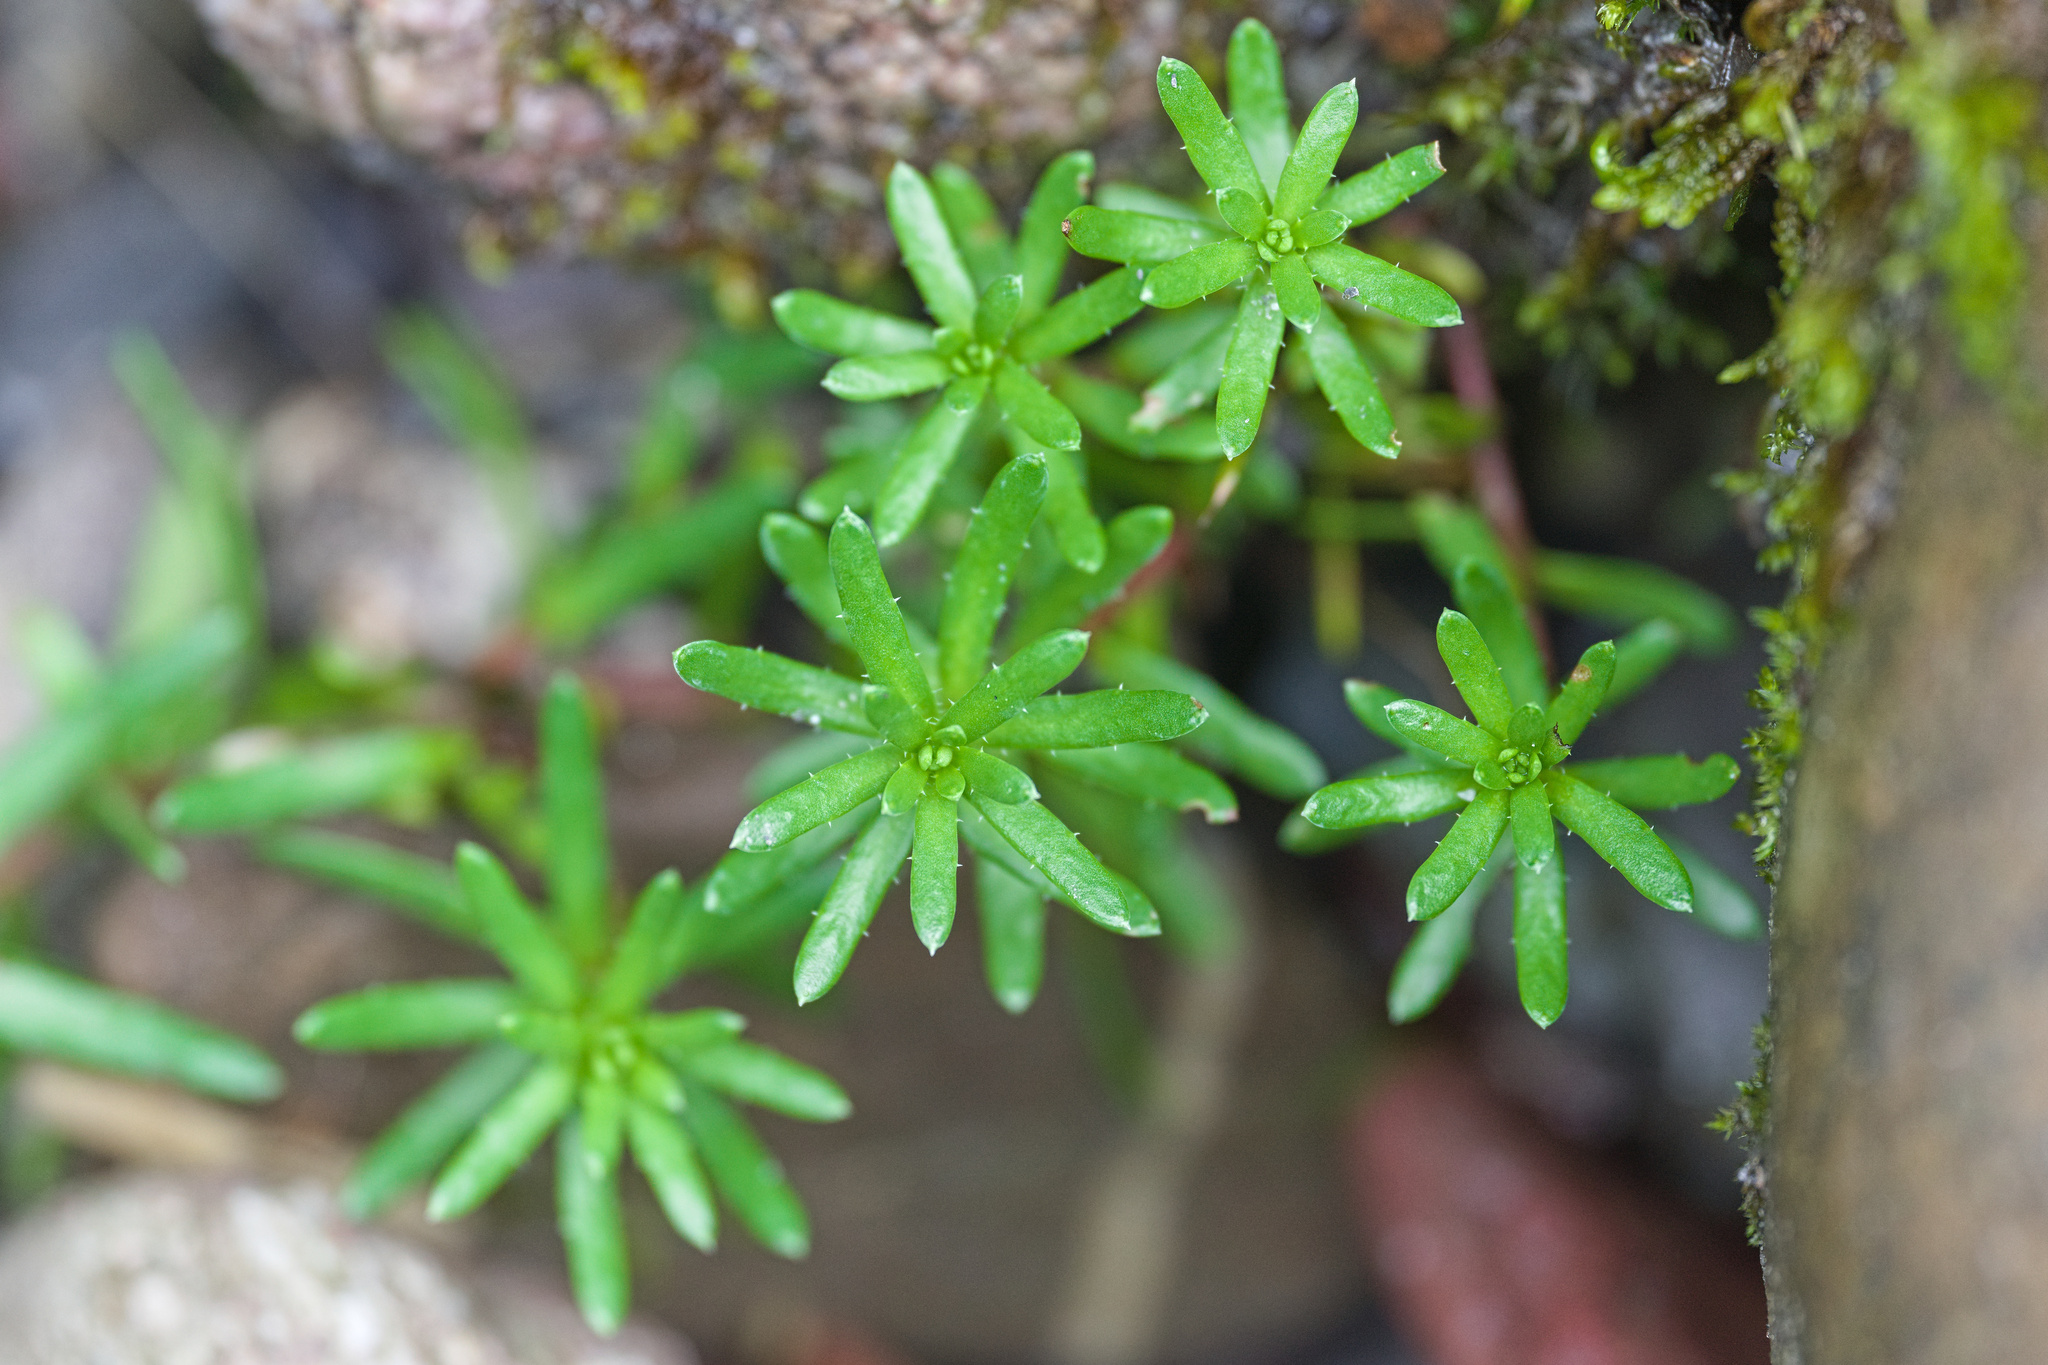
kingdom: Plantae
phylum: Tracheophyta
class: Magnoliopsida
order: Saxifragales
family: Saxifragaceae
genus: Saxifraga
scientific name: Saxifraga aizoides
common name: Yellow mountain saxifrage
